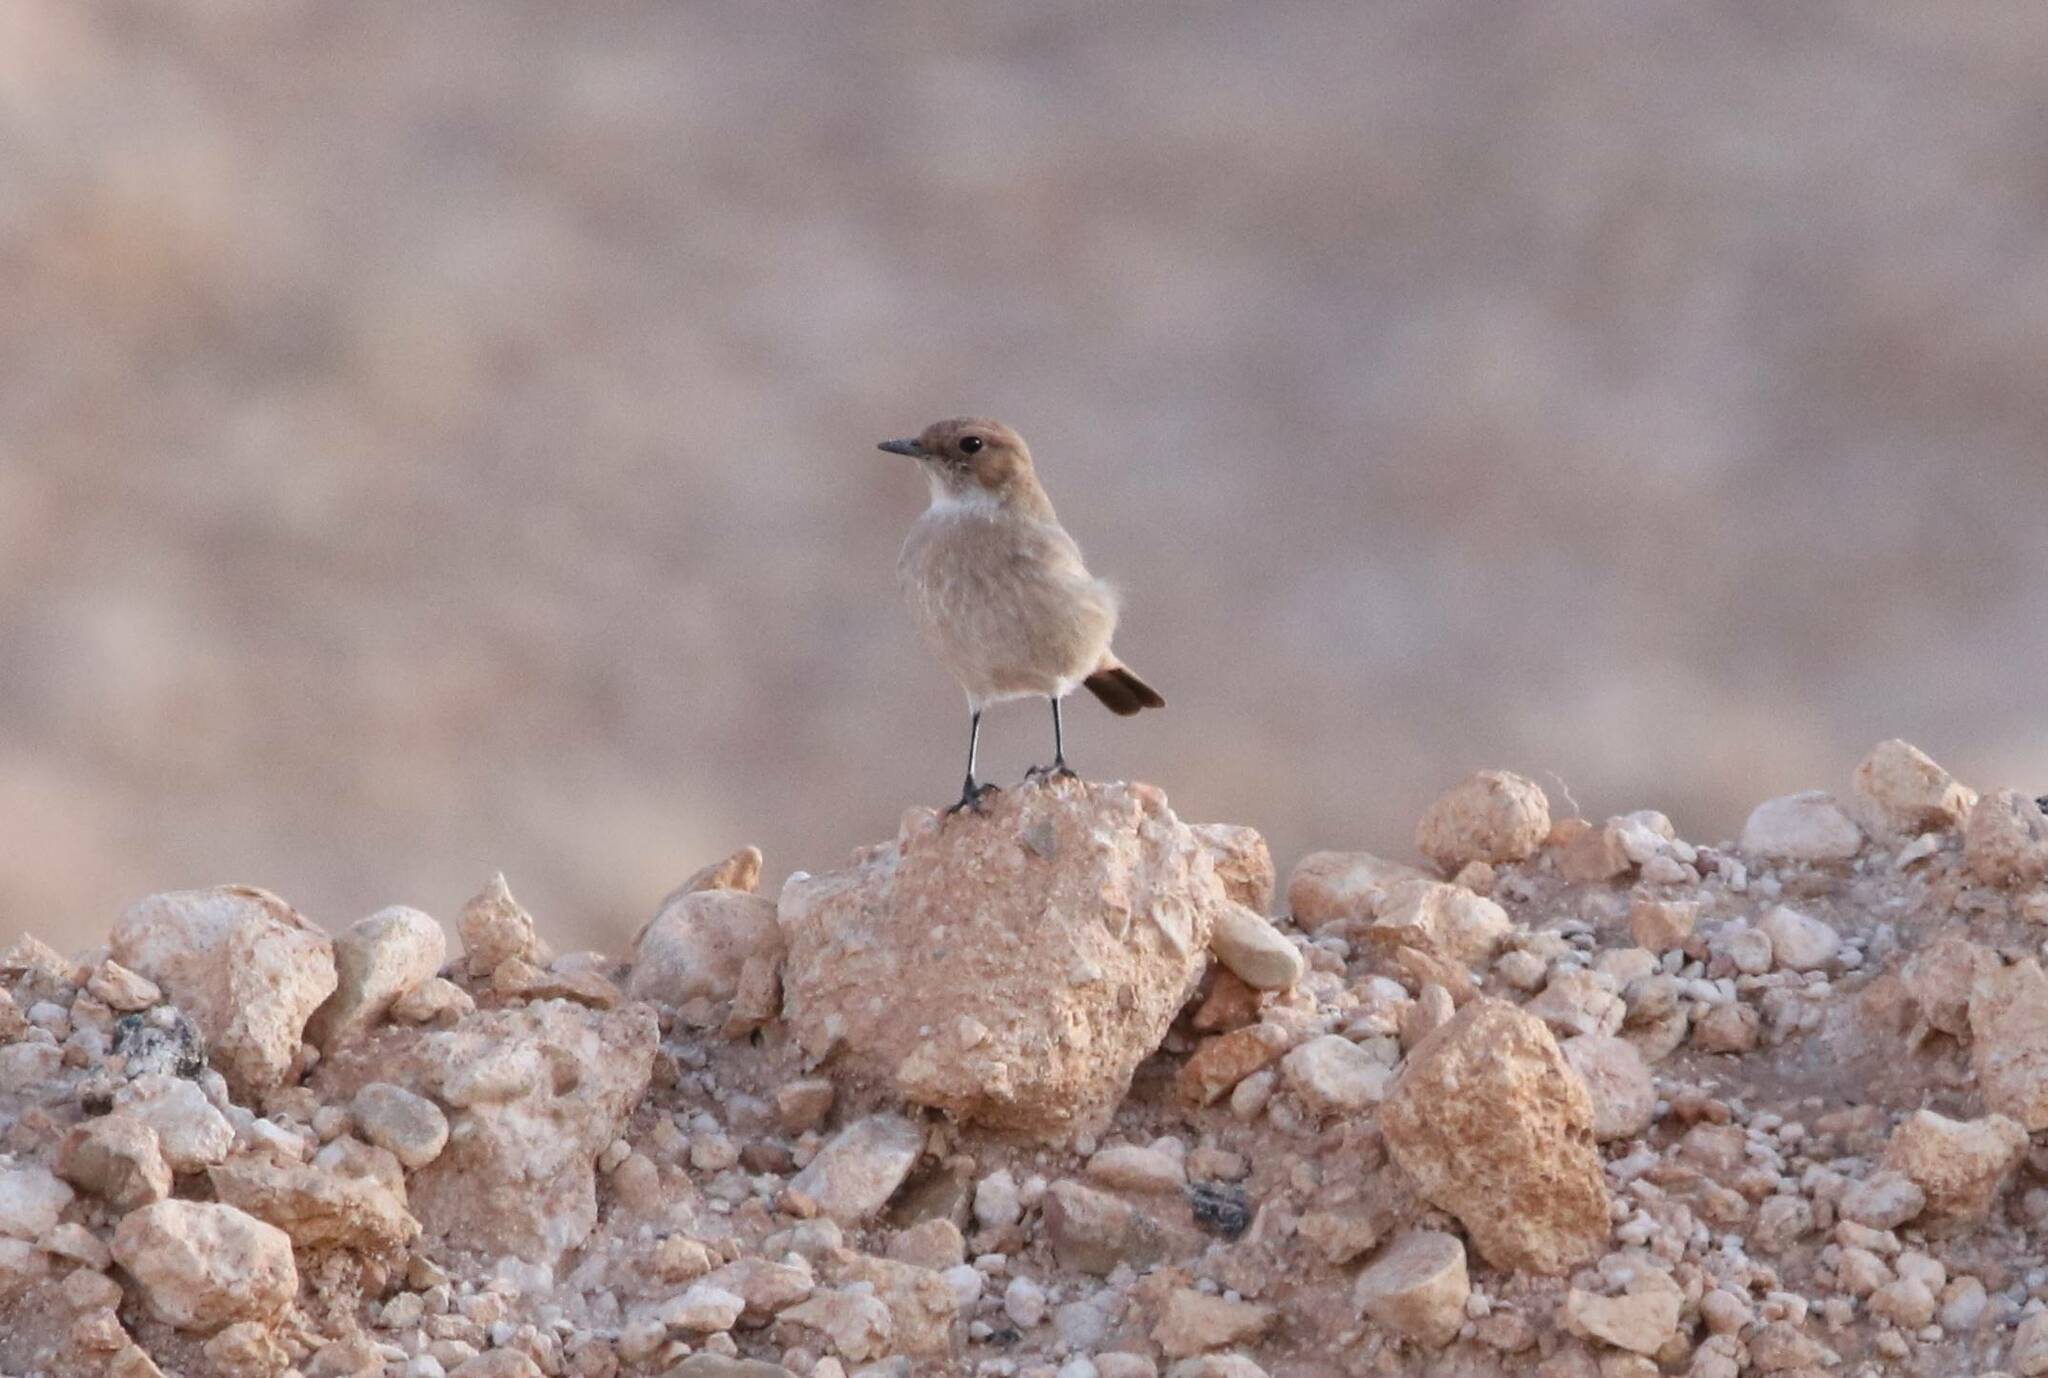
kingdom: Animalia
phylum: Chordata
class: Aves
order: Passeriformes
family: Muscicapidae
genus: Oenanthe
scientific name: Oenanthe moesta
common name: Red-rumped wheatear
